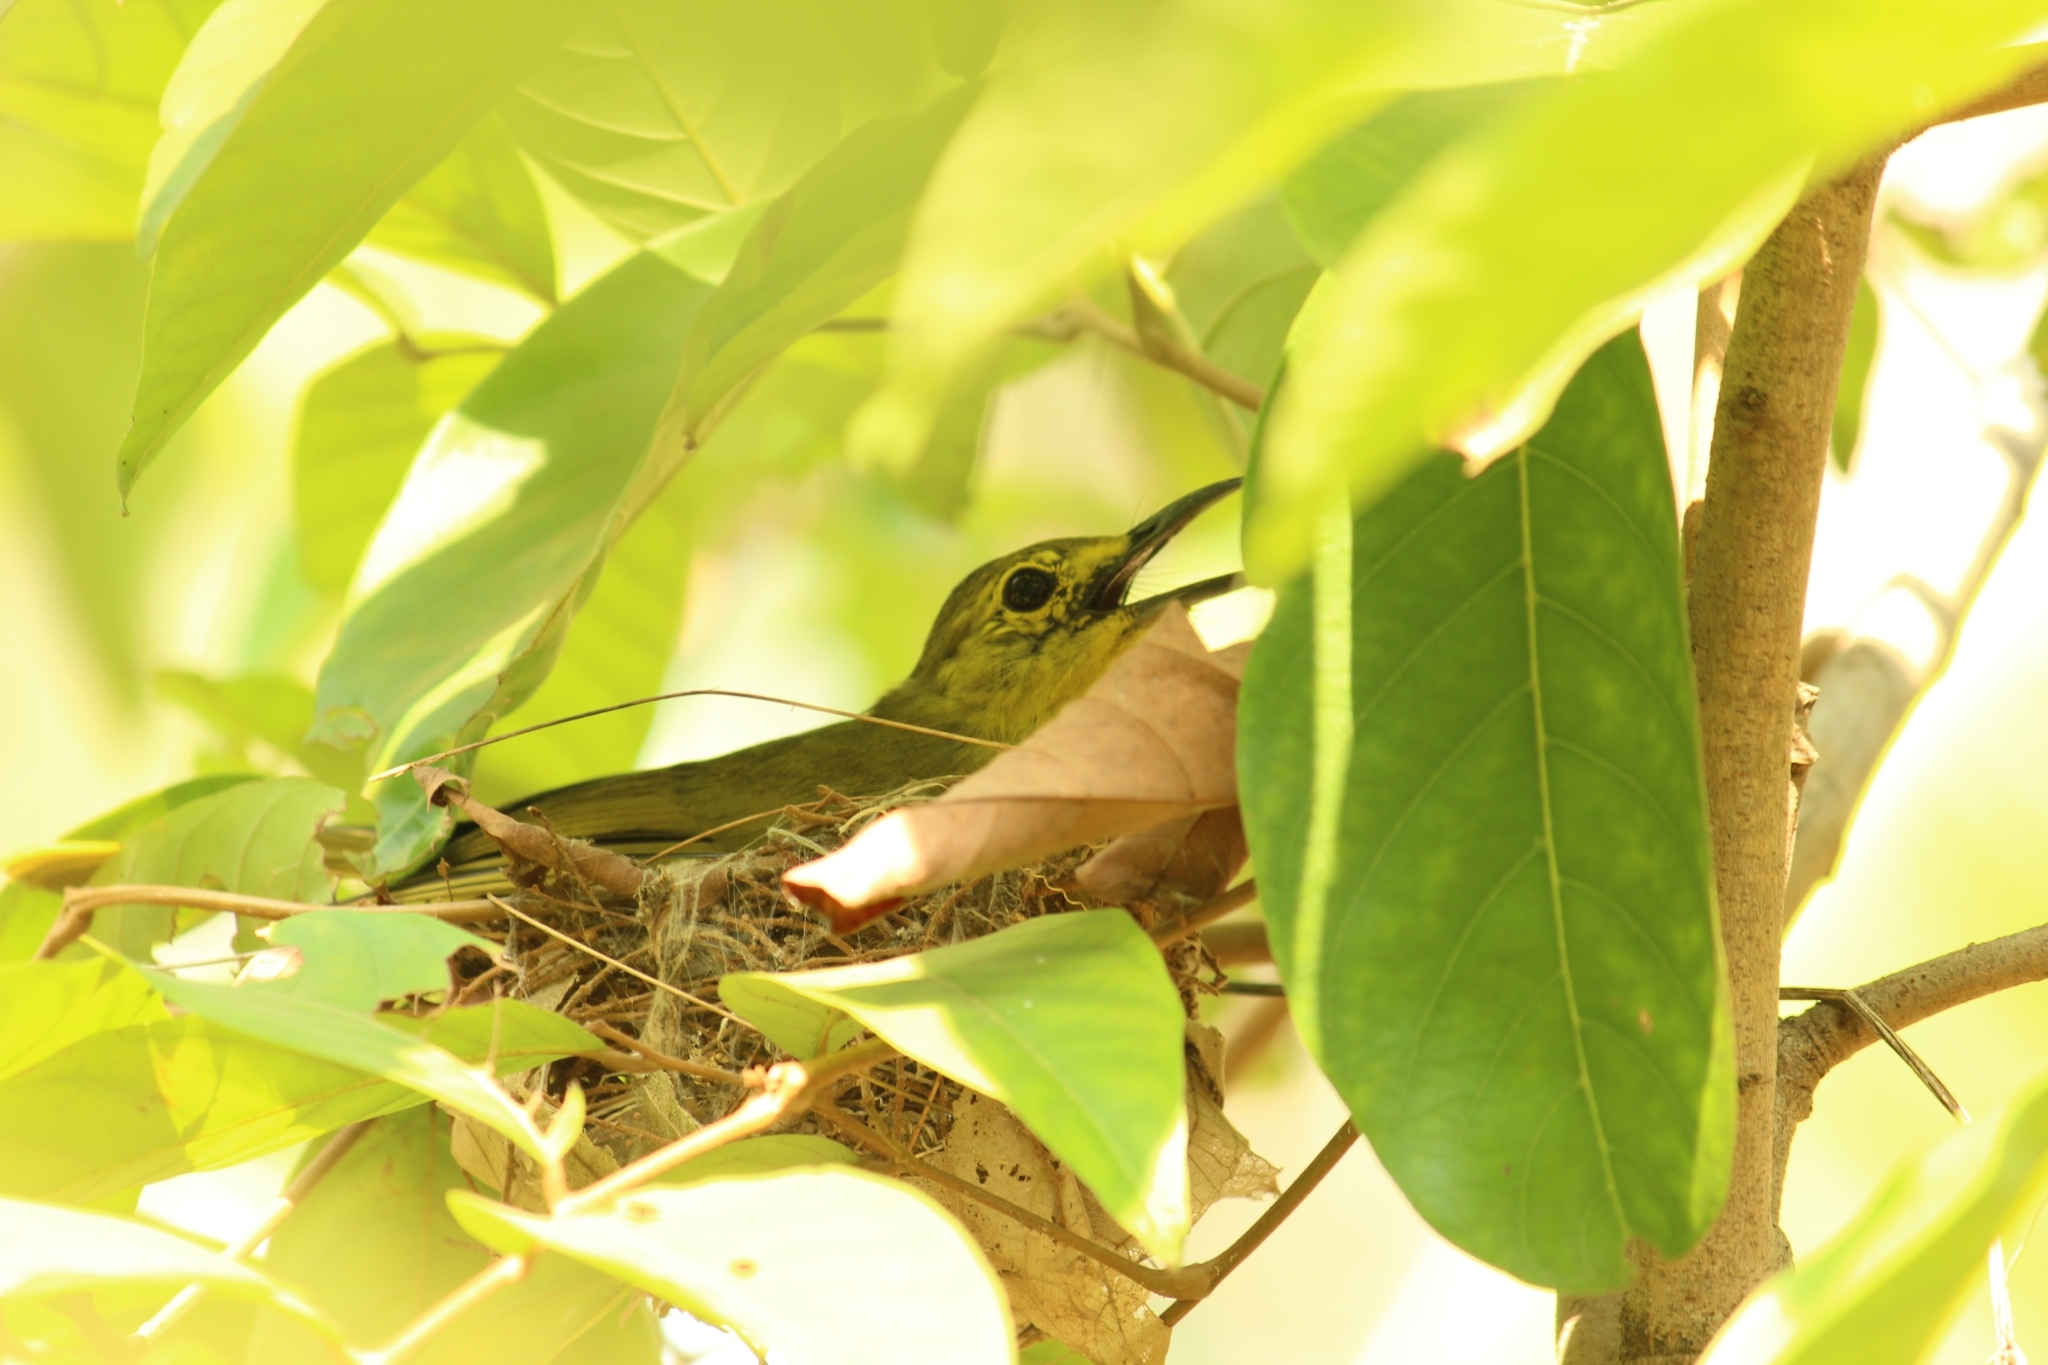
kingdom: Animalia
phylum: Chordata
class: Aves
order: Passeriformes
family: Aegithinidae
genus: Aegithina
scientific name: Aegithina tiphia
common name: Common iora
